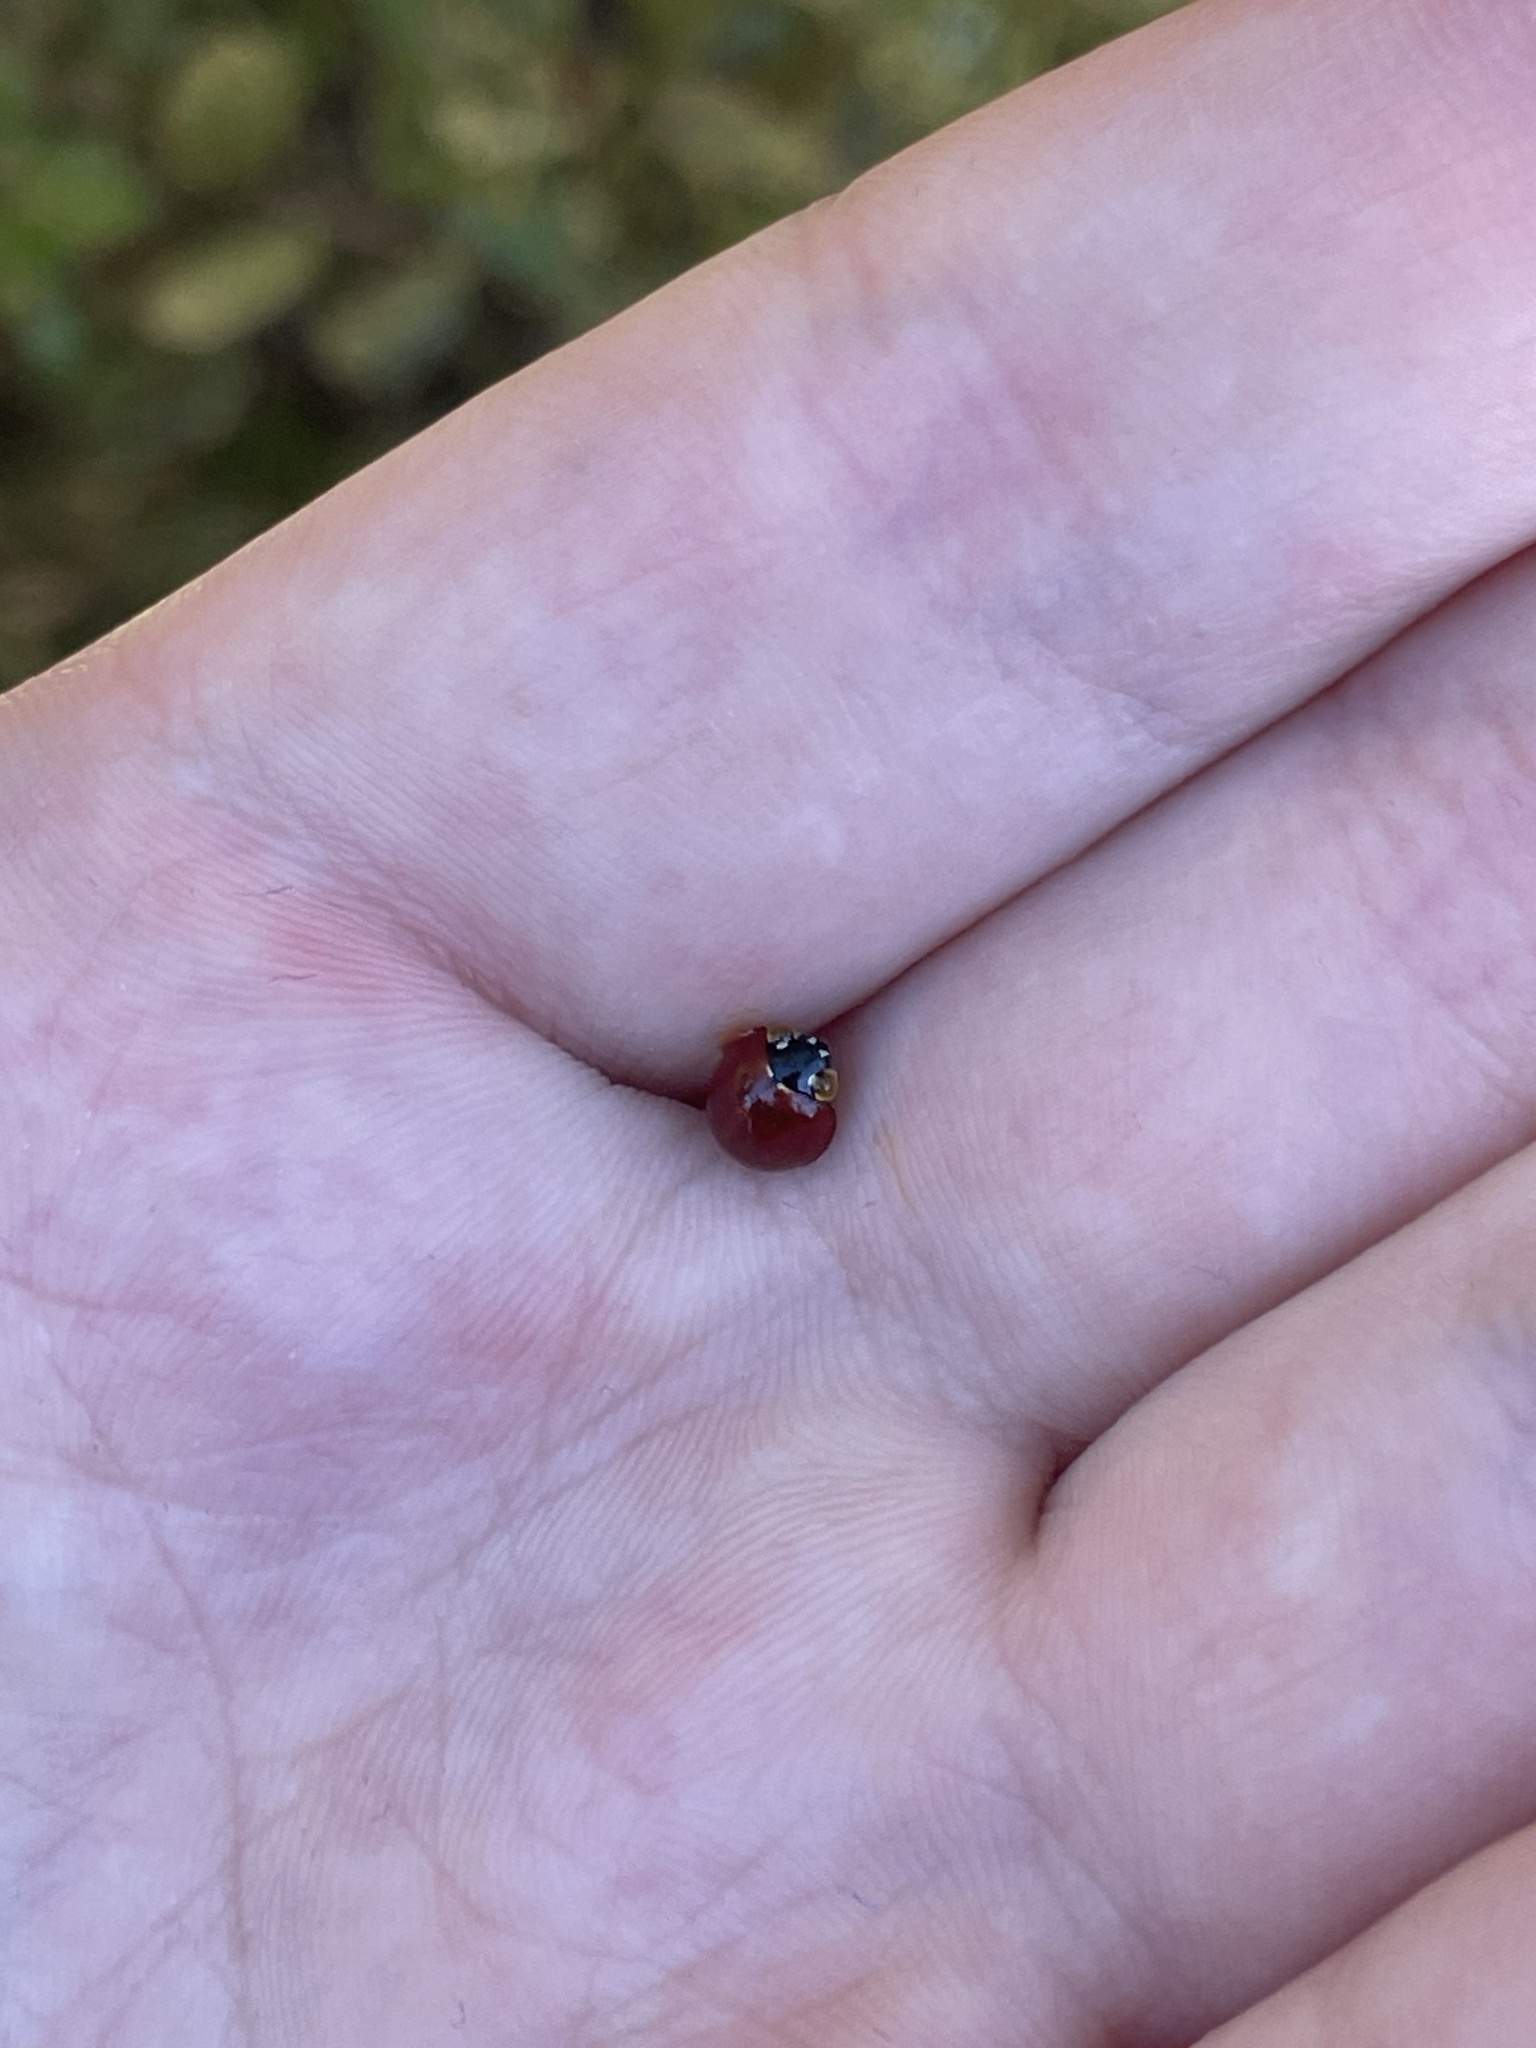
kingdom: Animalia
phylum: Arthropoda
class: Insecta
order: Coleoptera
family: Coccinellidae
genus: Cycloneda
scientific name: Cycloneda sanguinea
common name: Ladybird beetle
